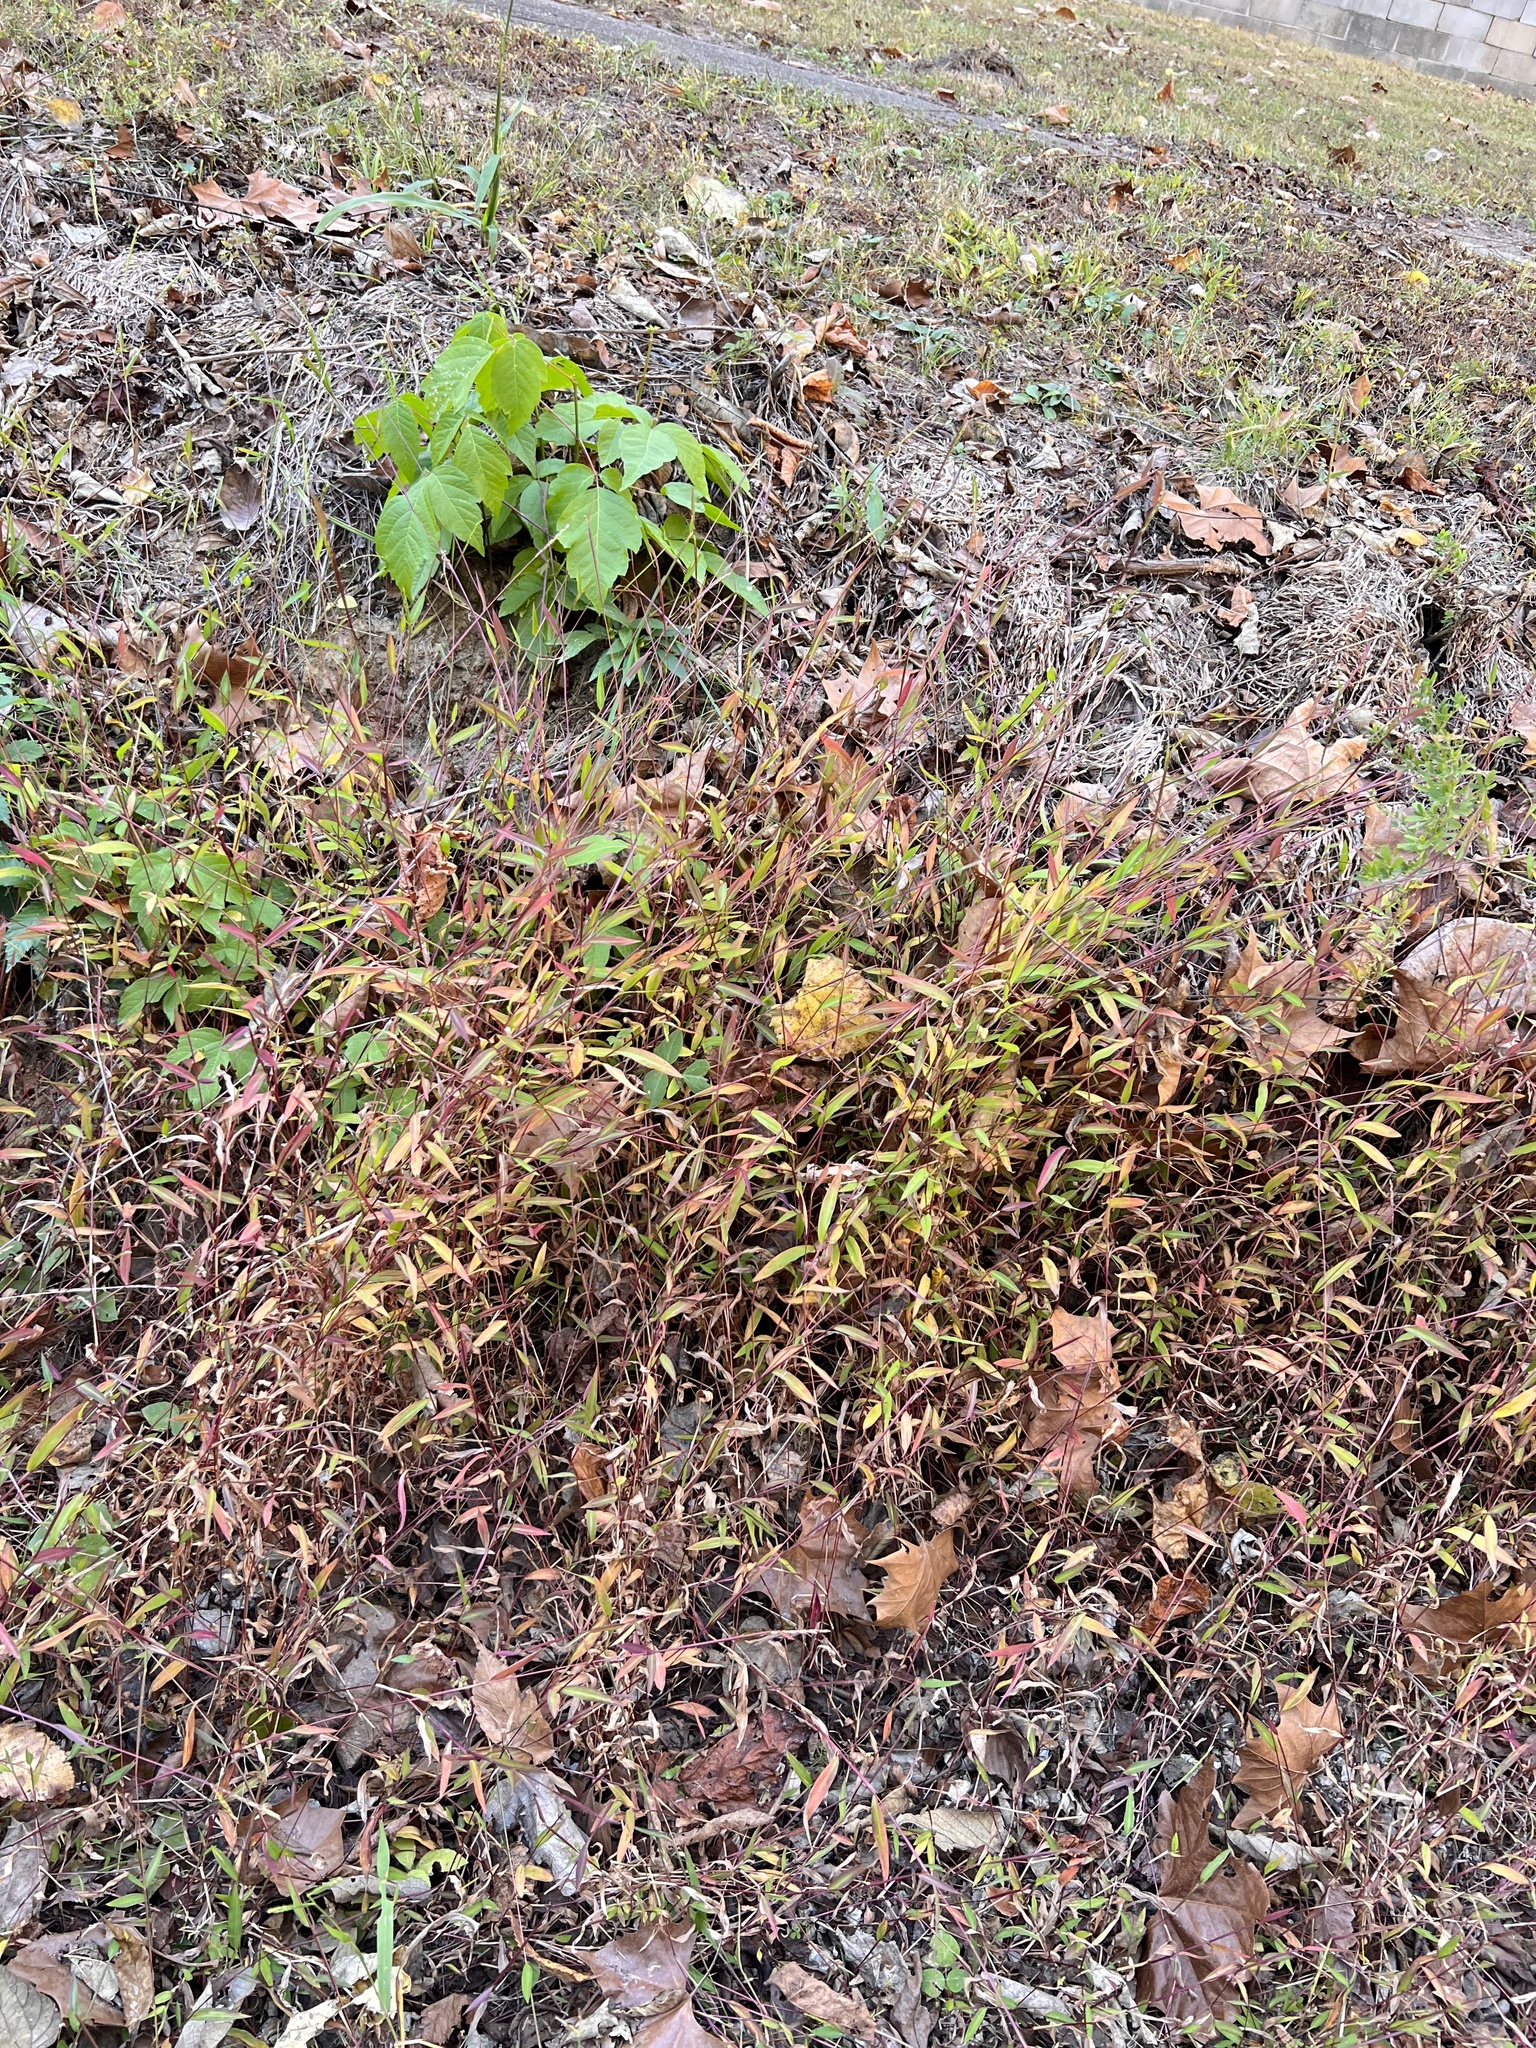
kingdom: Plantae
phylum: Tracheophyta
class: Liliopsida
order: Poales
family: Poaceae
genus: Microstegium
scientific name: Microstegium vimineum
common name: Japanese stiltgrass
